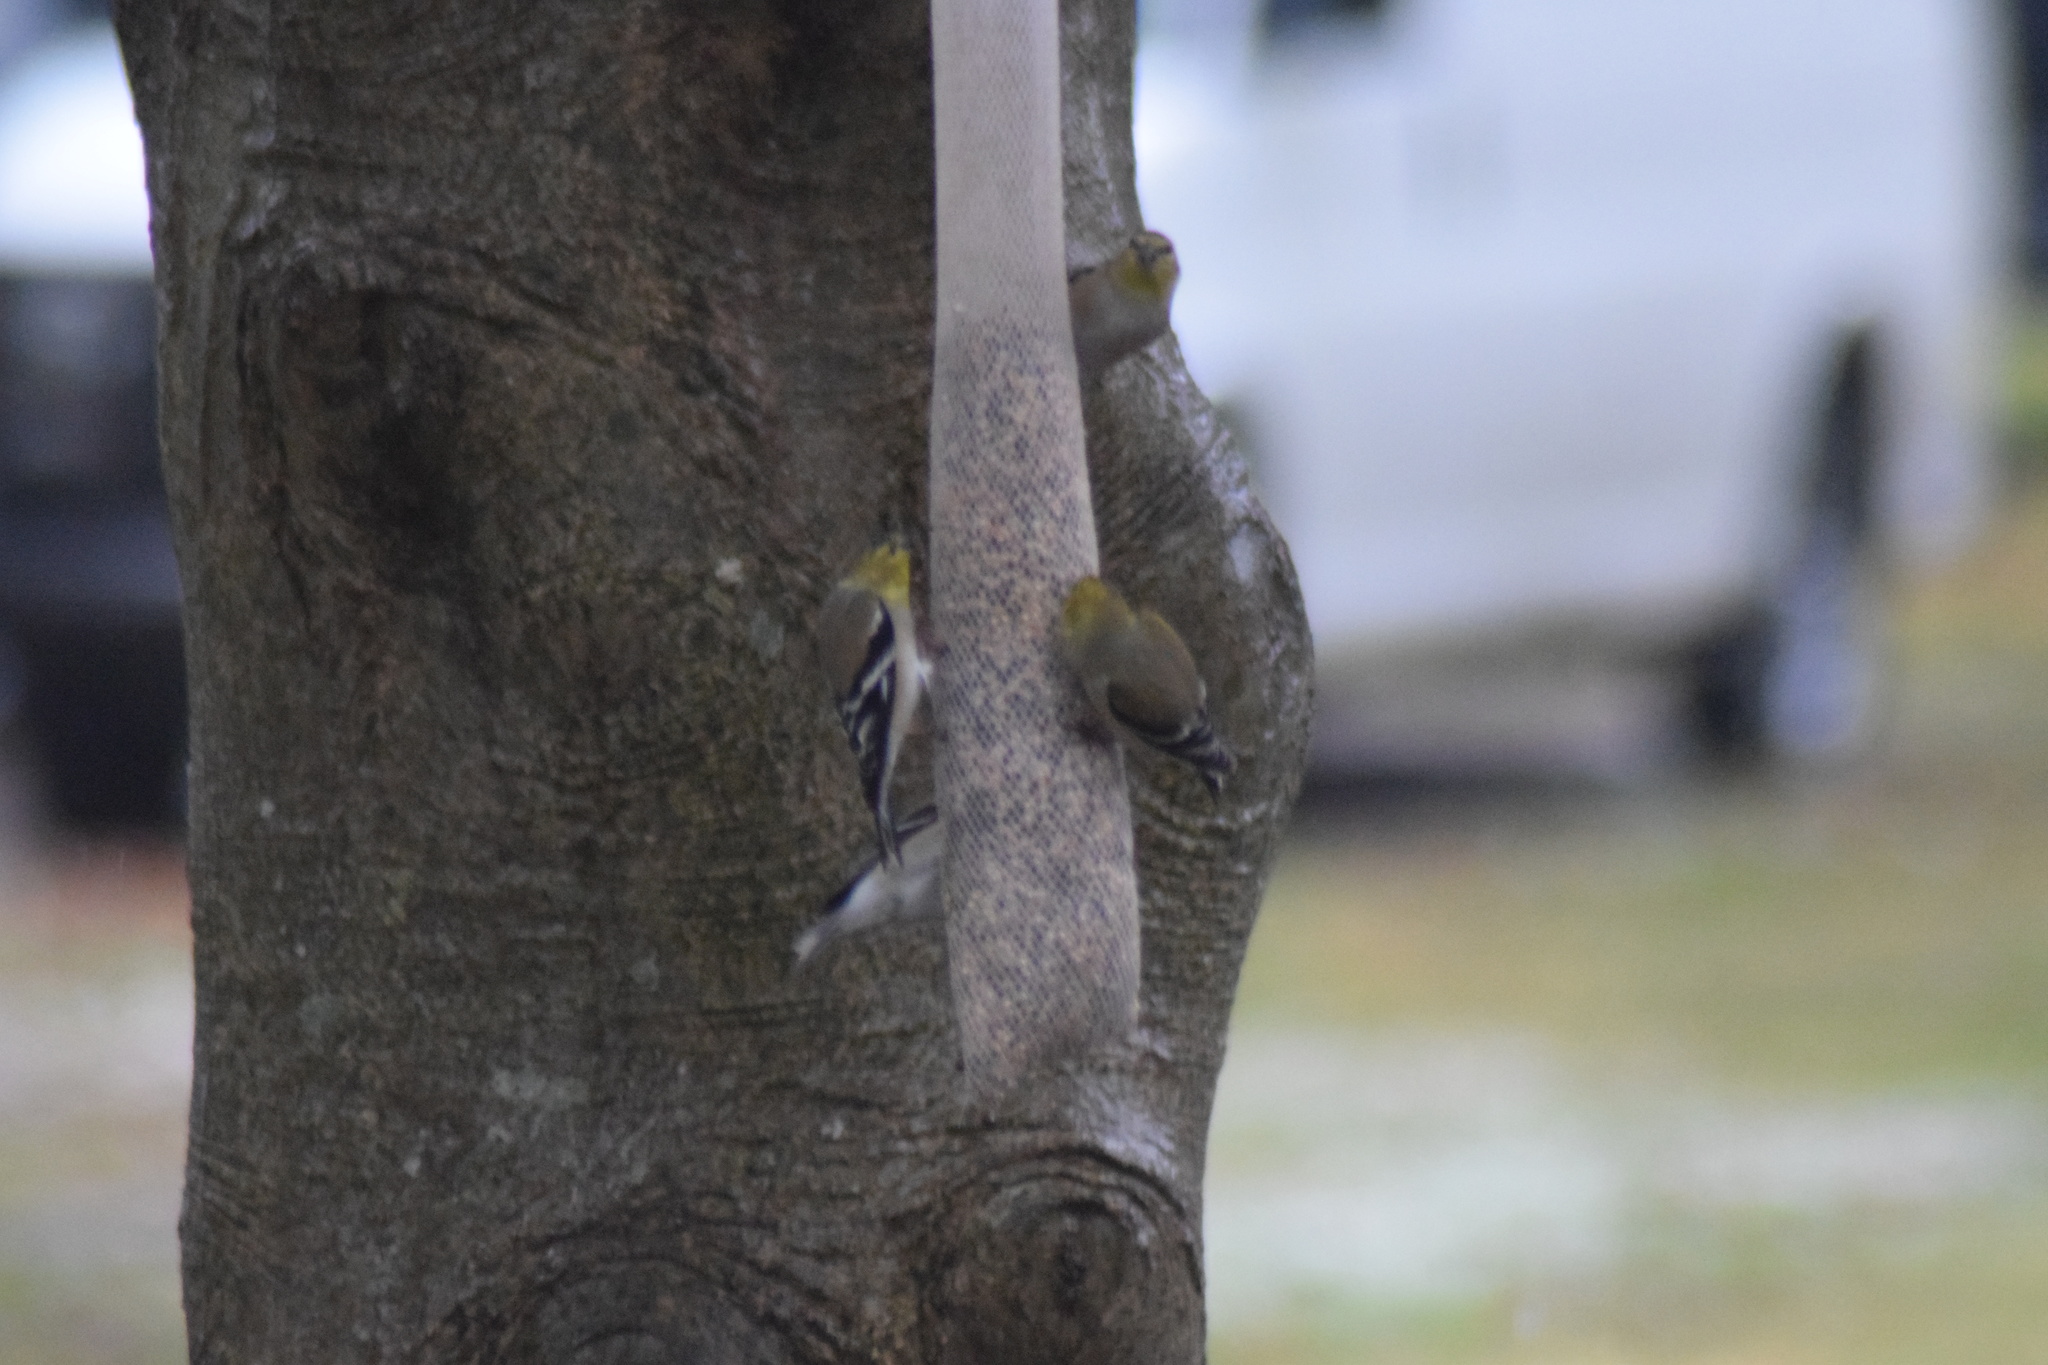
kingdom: Animalia
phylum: Chordata
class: Aves
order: Passeriformes
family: Fringillidae
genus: Spinus
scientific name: Spinus tristis
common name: American goldfinch
